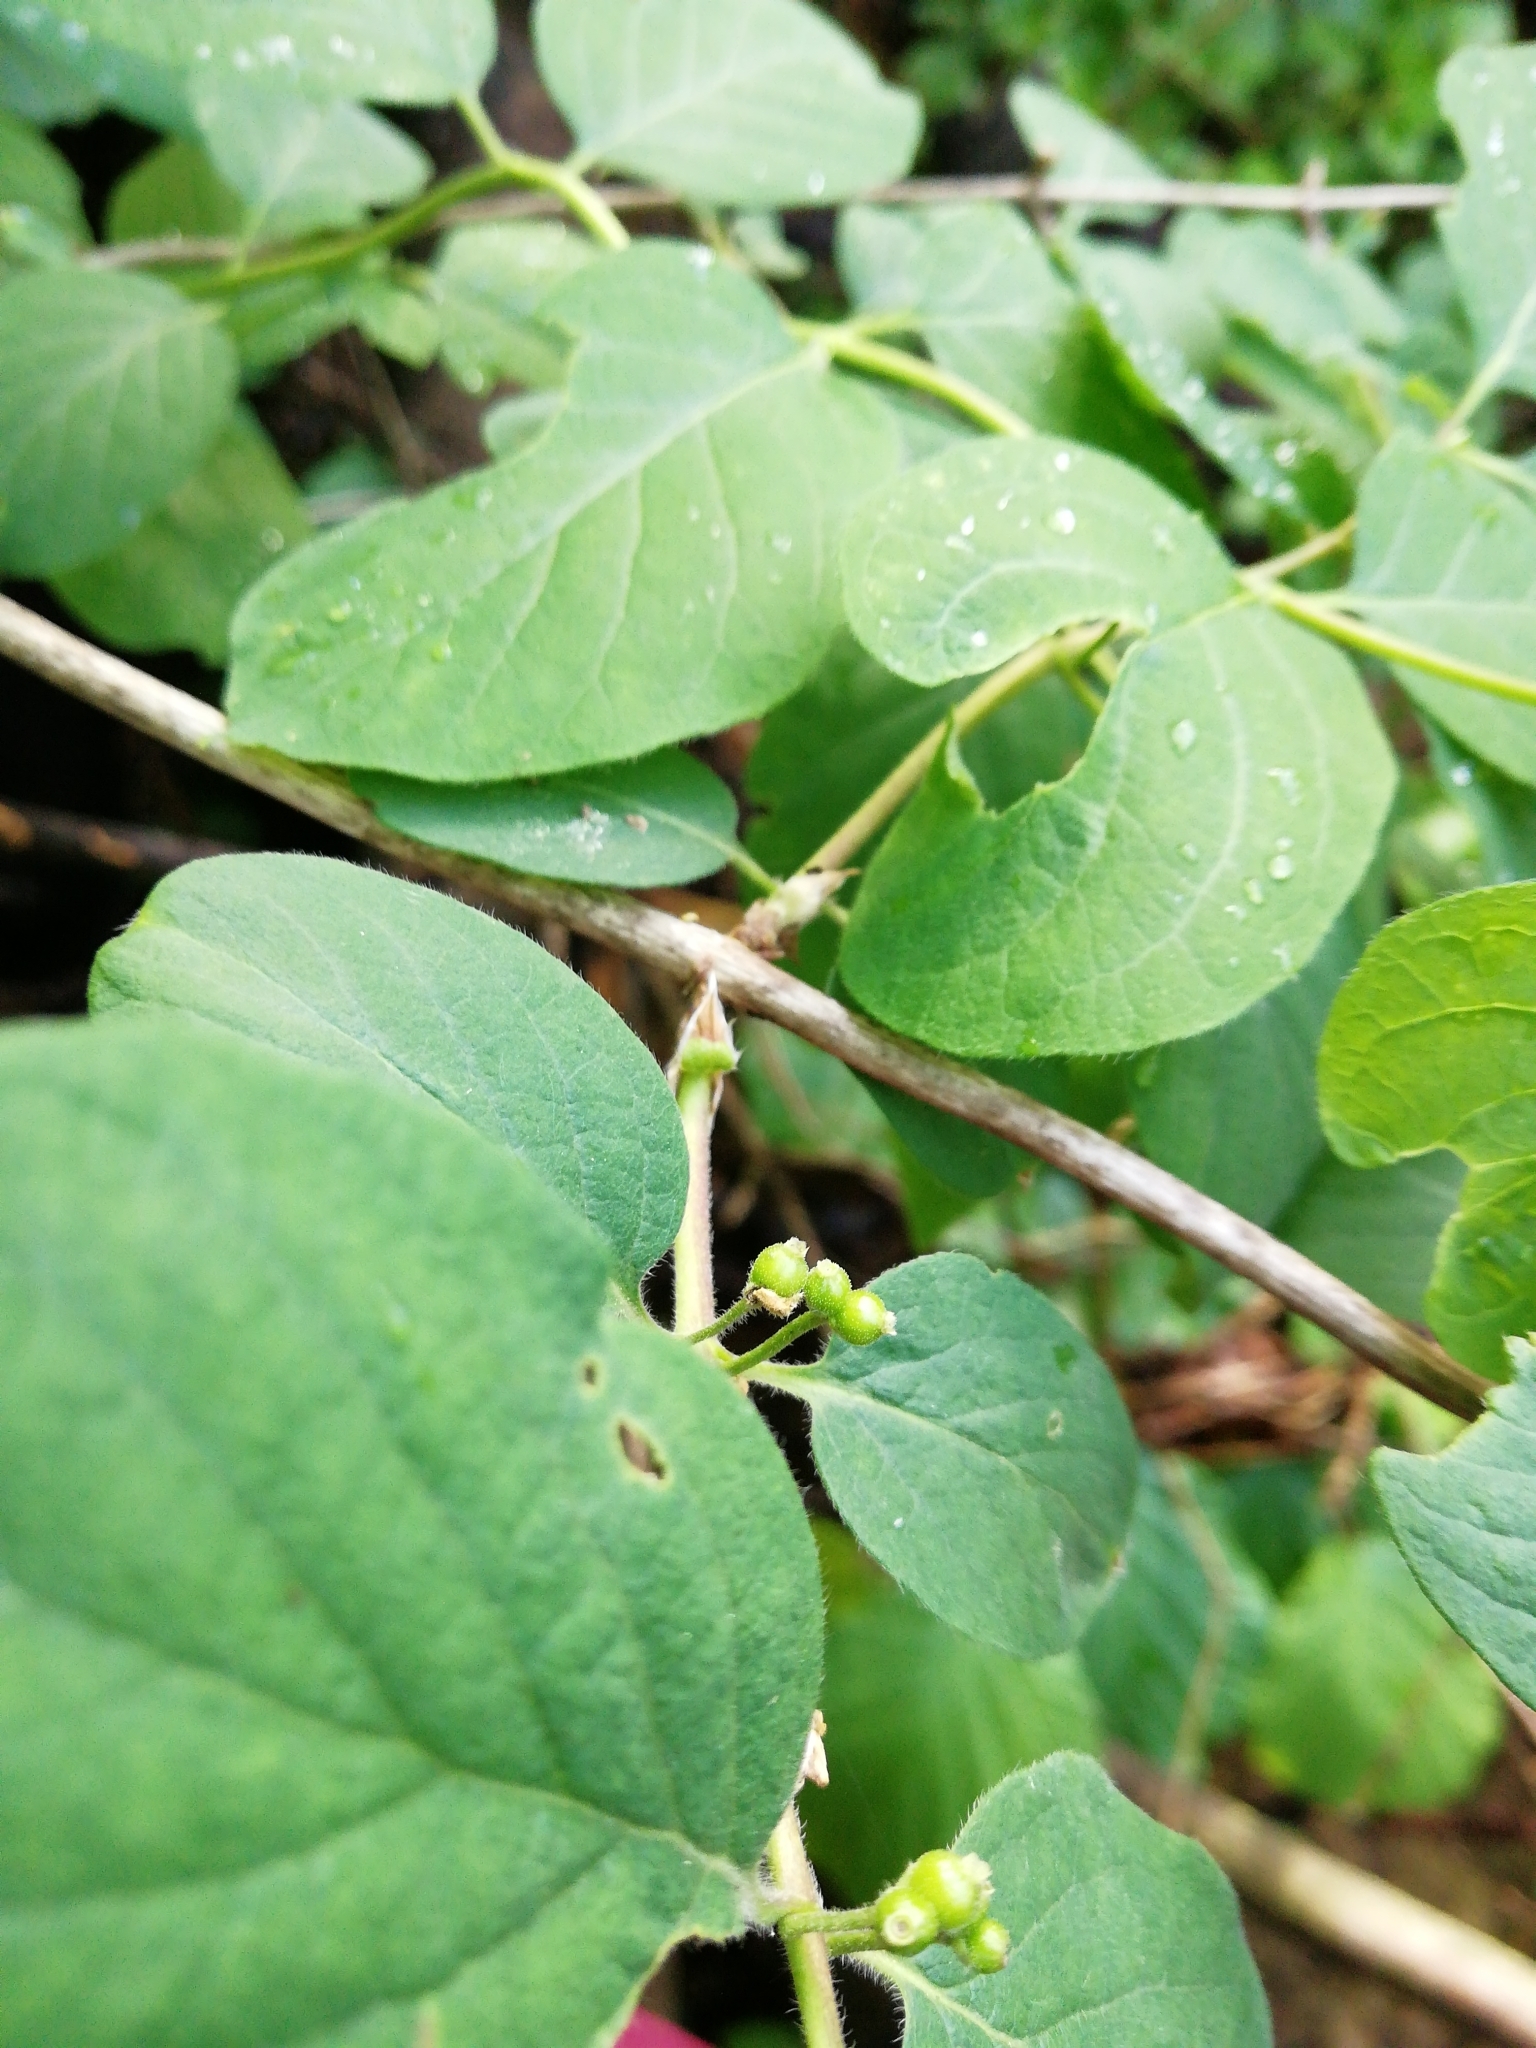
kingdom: Plantae
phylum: Tracheophyta
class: Magnoliopsida
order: Dipsacales
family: Caprifoliaceae
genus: Lonicera
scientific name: Lonicera xylosteum
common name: Fly honeysuckle
